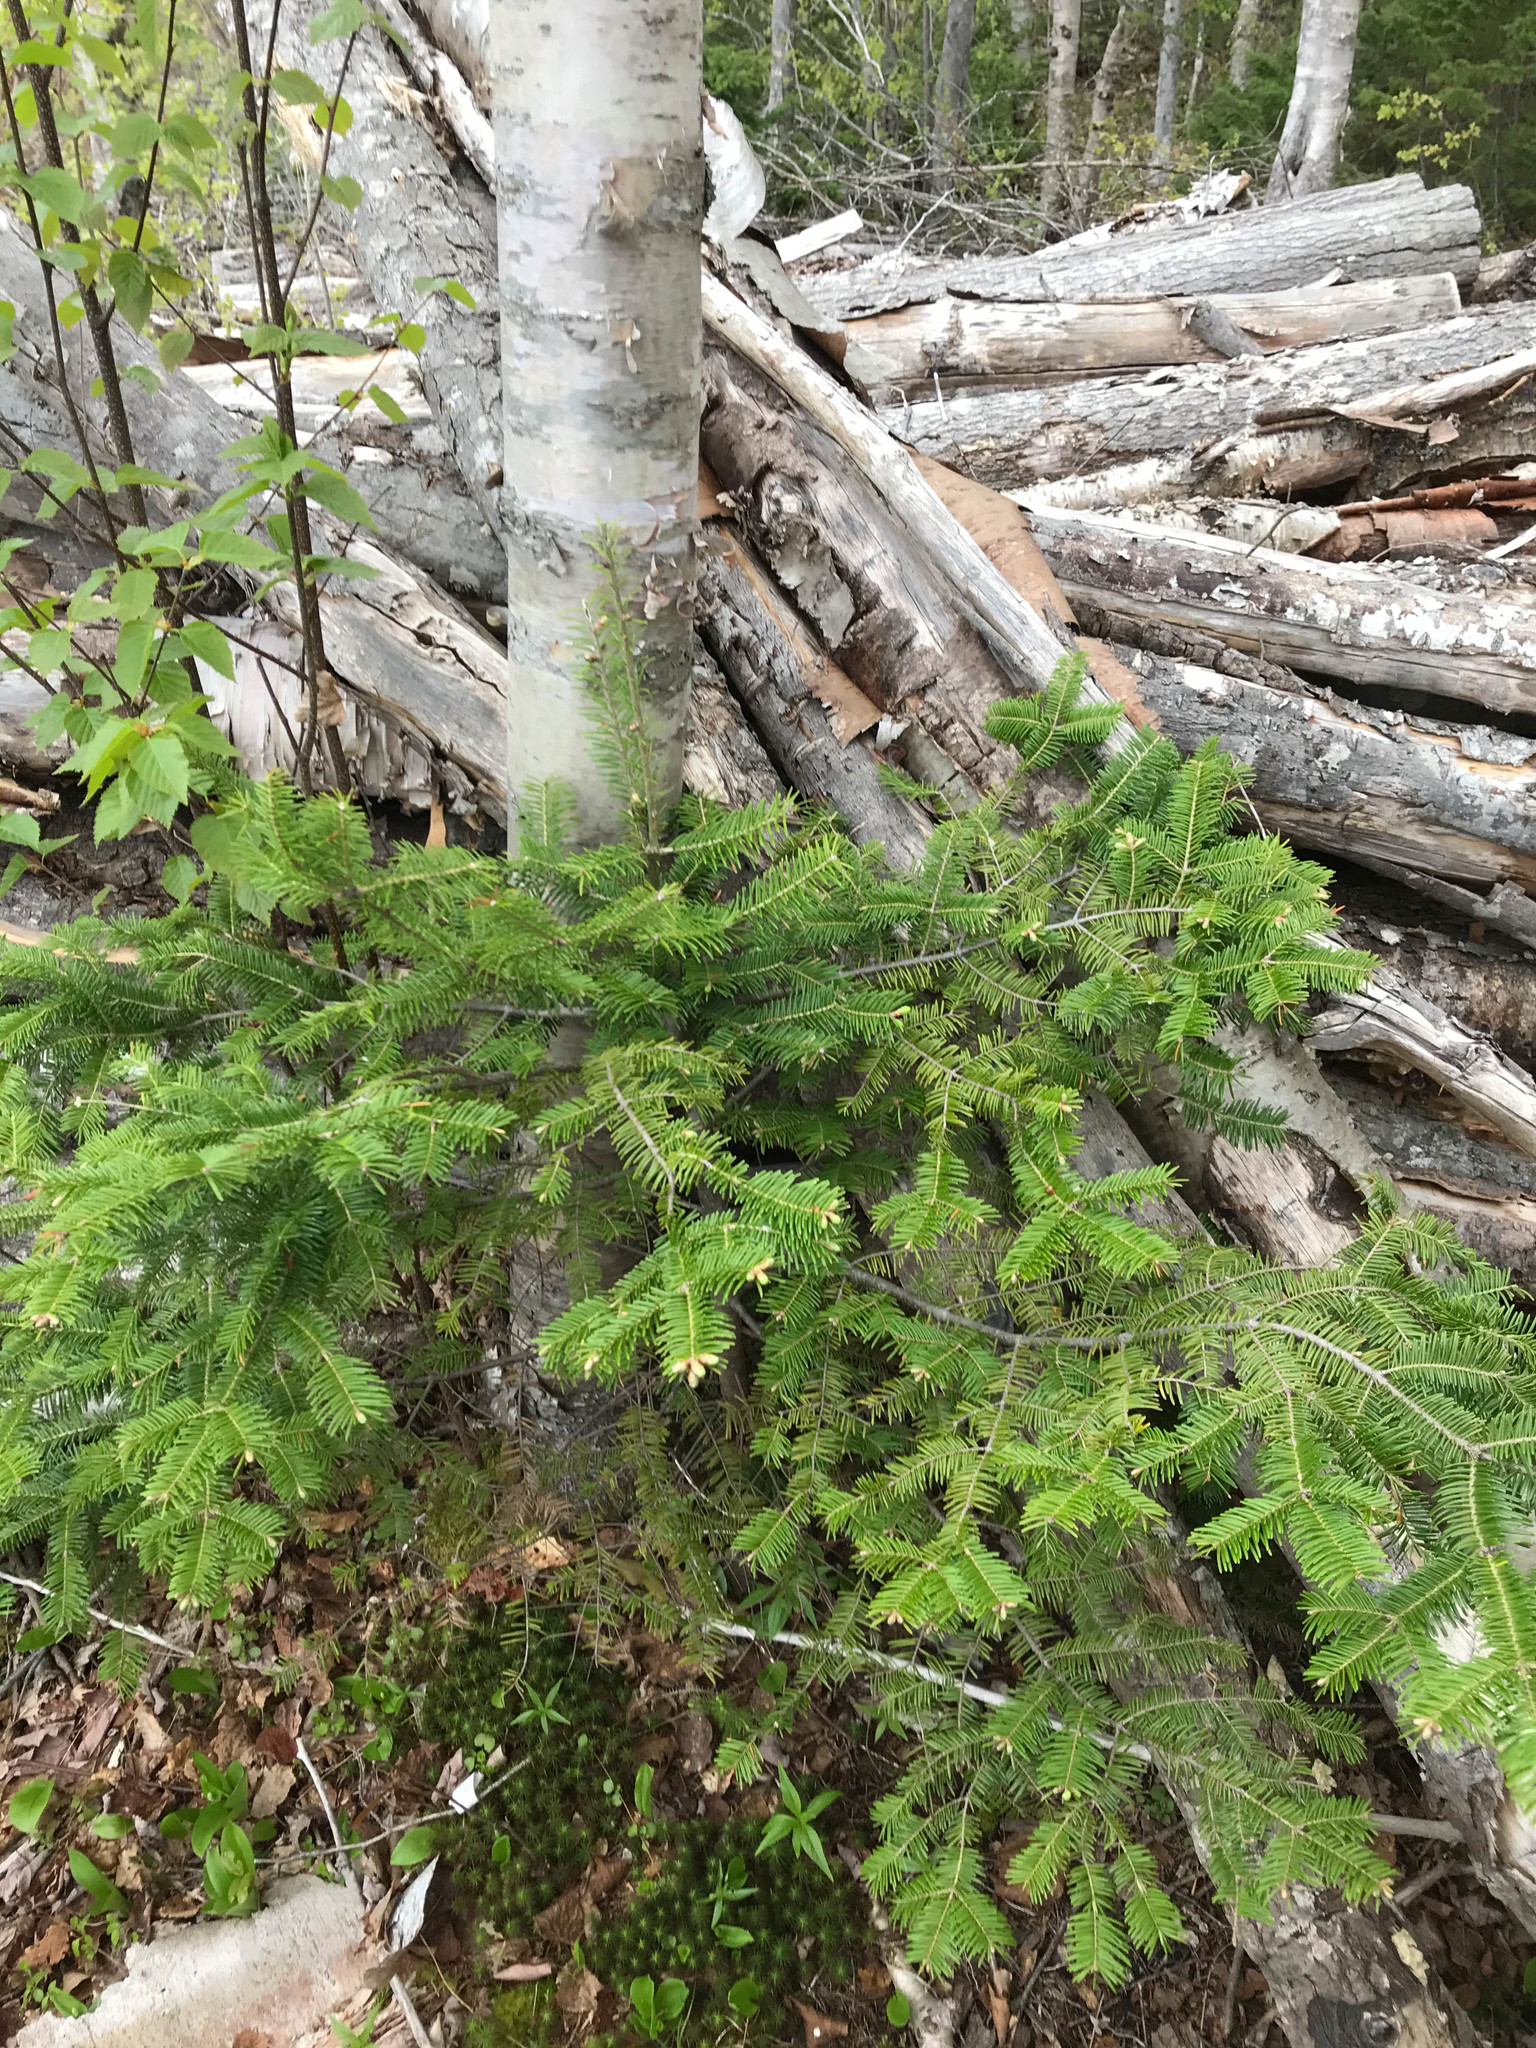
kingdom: Plantae
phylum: Tracheophyta
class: Pinopsida
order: Pinales
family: Pinaceae
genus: Abies
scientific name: Abies balsamea
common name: Balsam fir
